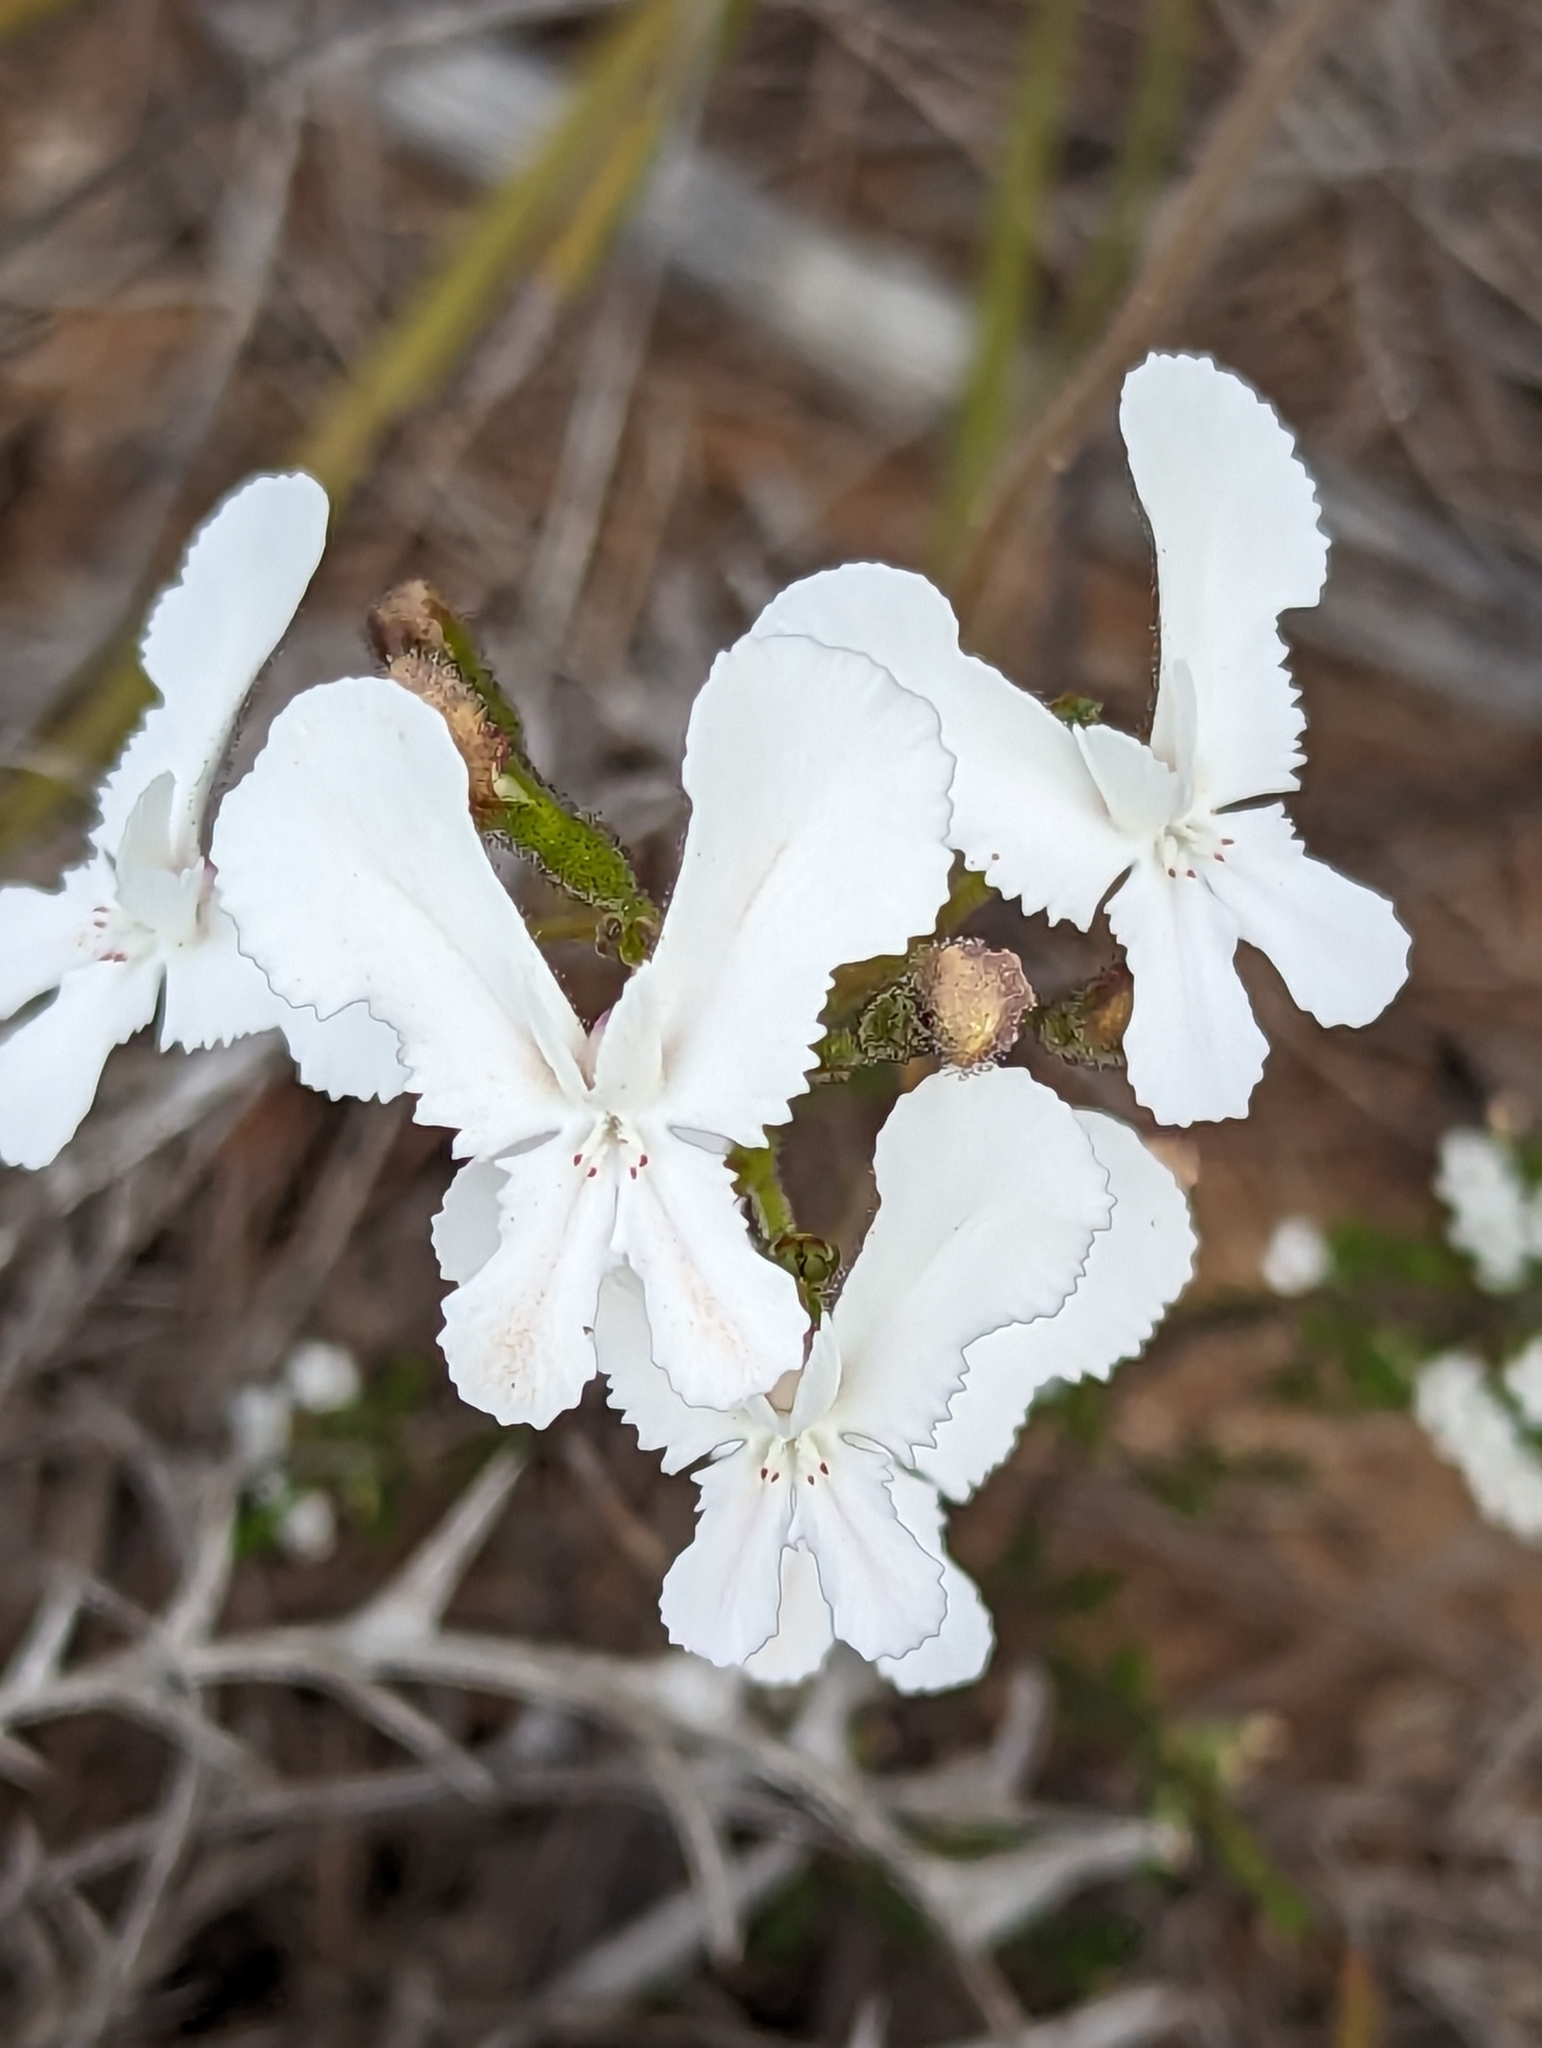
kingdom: Plantae
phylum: Tracheophyta
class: Magnoliopsida
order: Asterales
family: Stylidiaceae
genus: Stylidium
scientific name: Stylidium caricifolium
